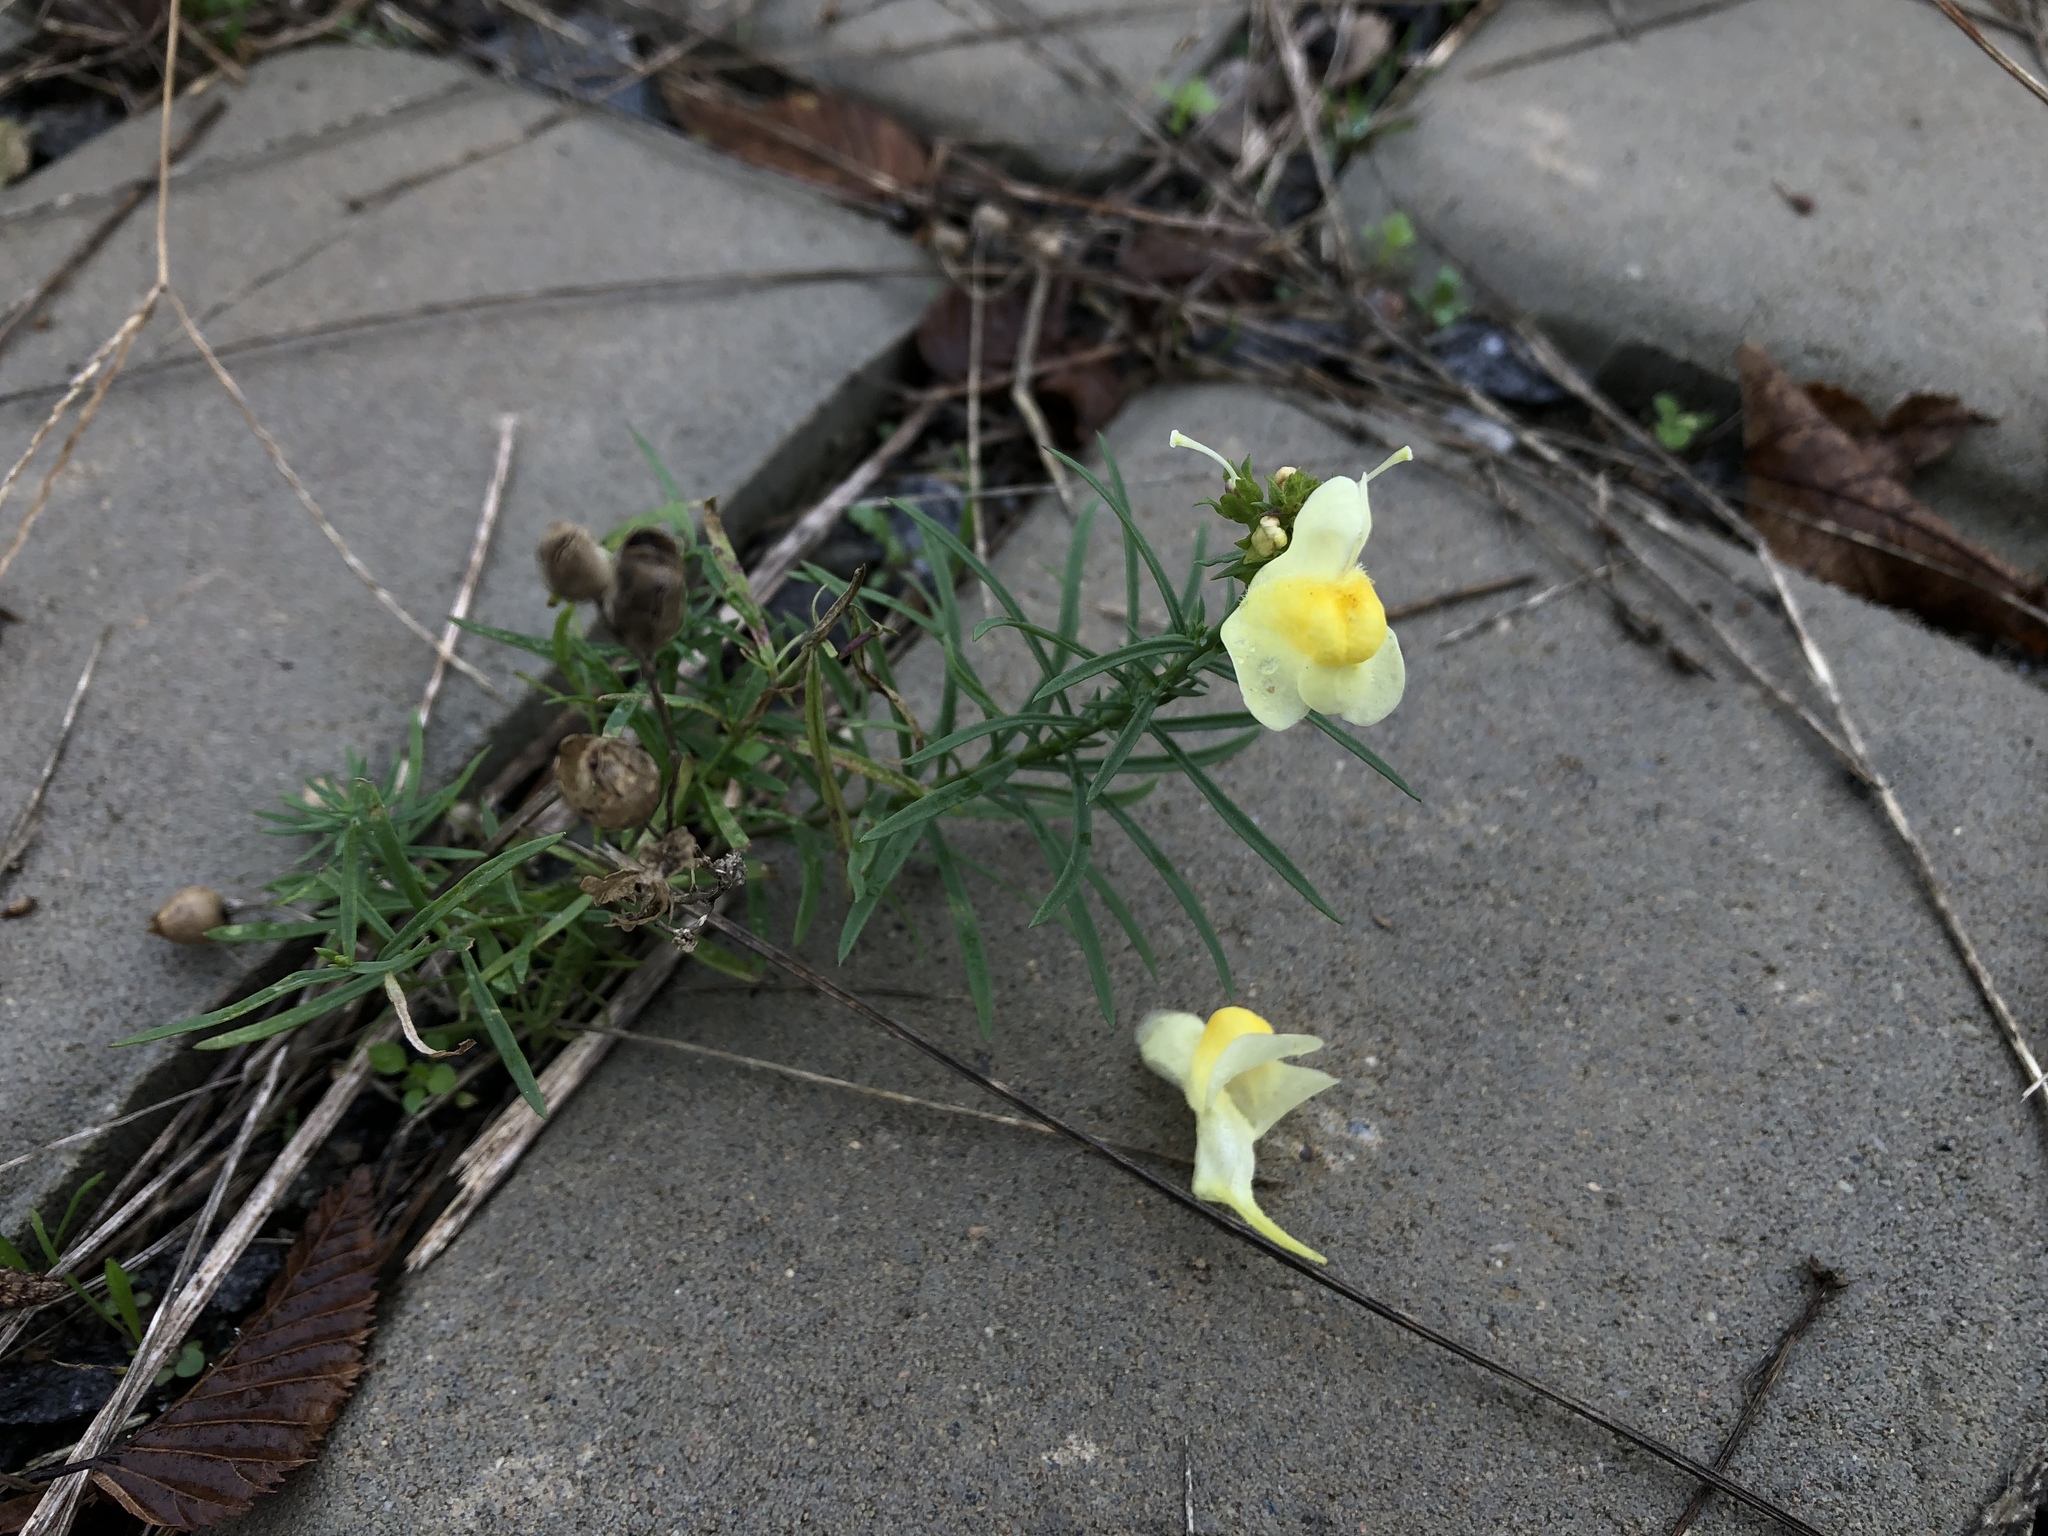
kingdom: Plantae
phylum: Tracheophyta
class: Magnoliopsida
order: Lamiales
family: Plantaginaceae
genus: Linaria
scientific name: Linaria vulgaris
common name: Butter and eggs
